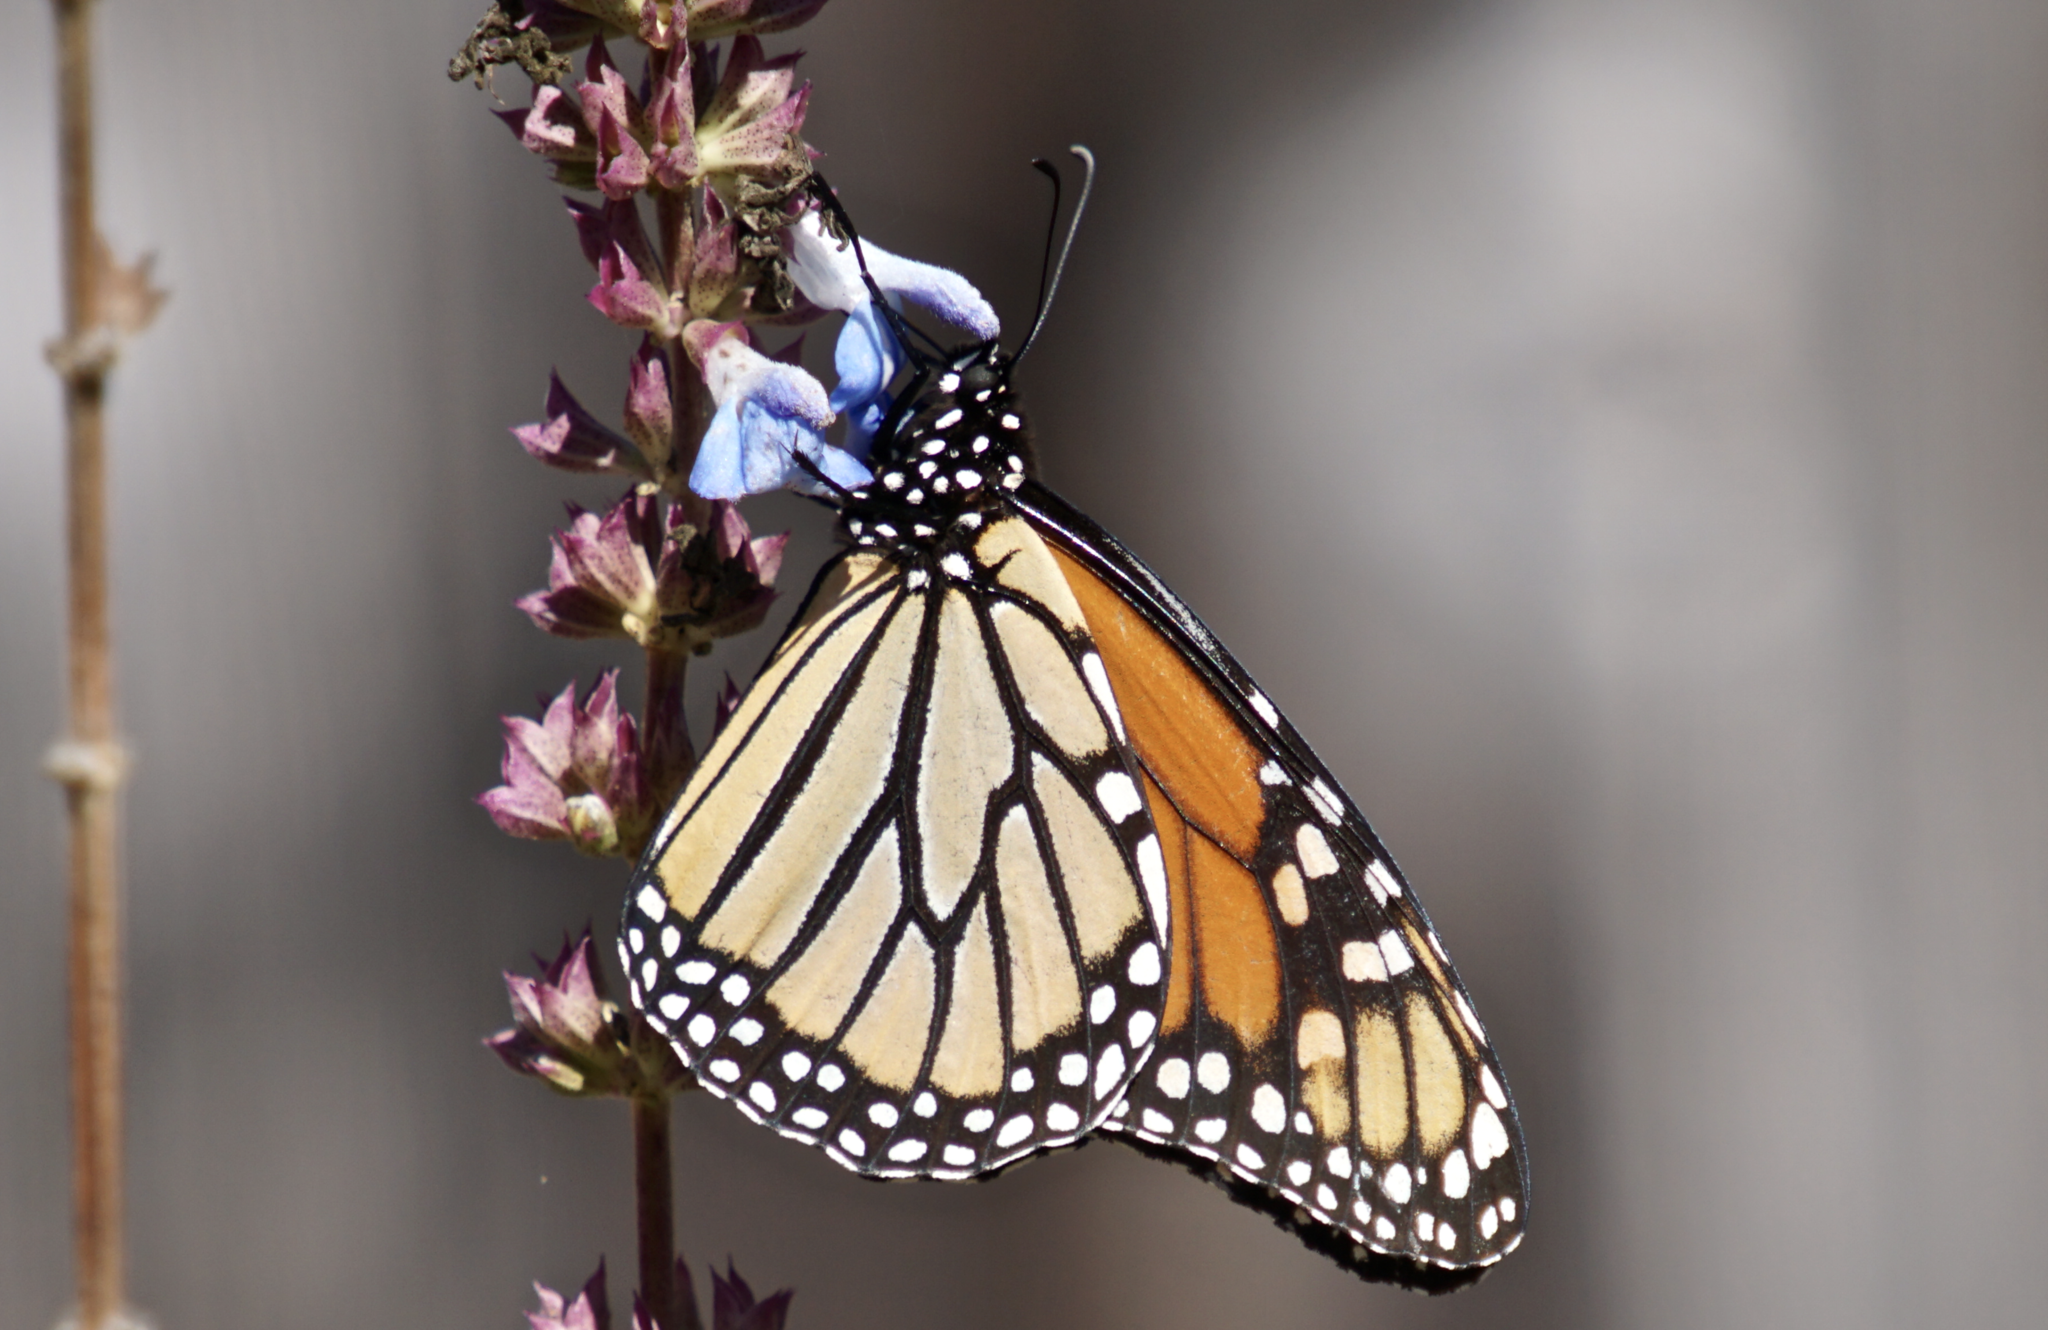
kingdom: Animalia
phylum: Arthropoda
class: Insecta
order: Lepidoptera
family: Nymphalidae
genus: Danaus
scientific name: Danaus plexippus
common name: Monarch
